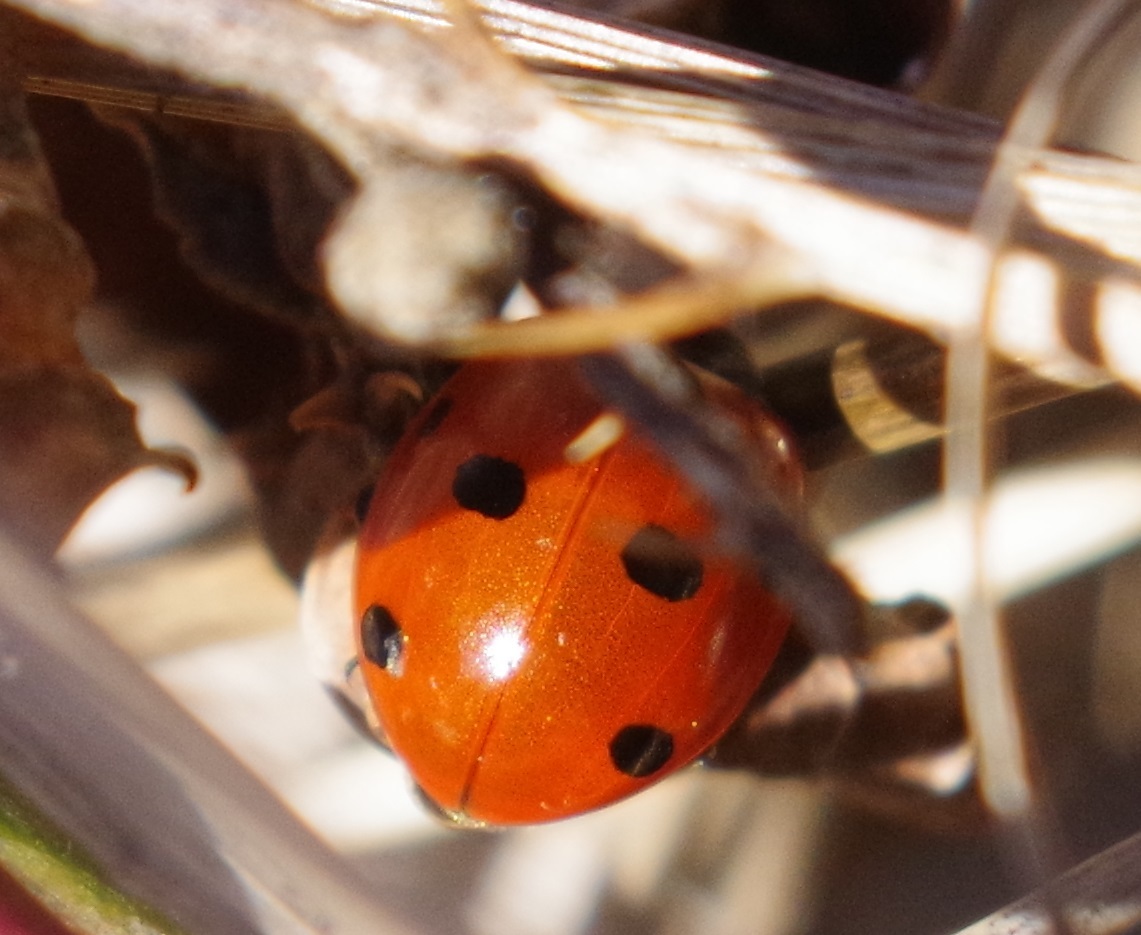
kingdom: Animalia
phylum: Arthropoda
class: Insecta
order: Coleoptera
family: Coccinellidae
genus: Coccinella
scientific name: Coccinella septempunctata
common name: Sevenspotted lady beetle
